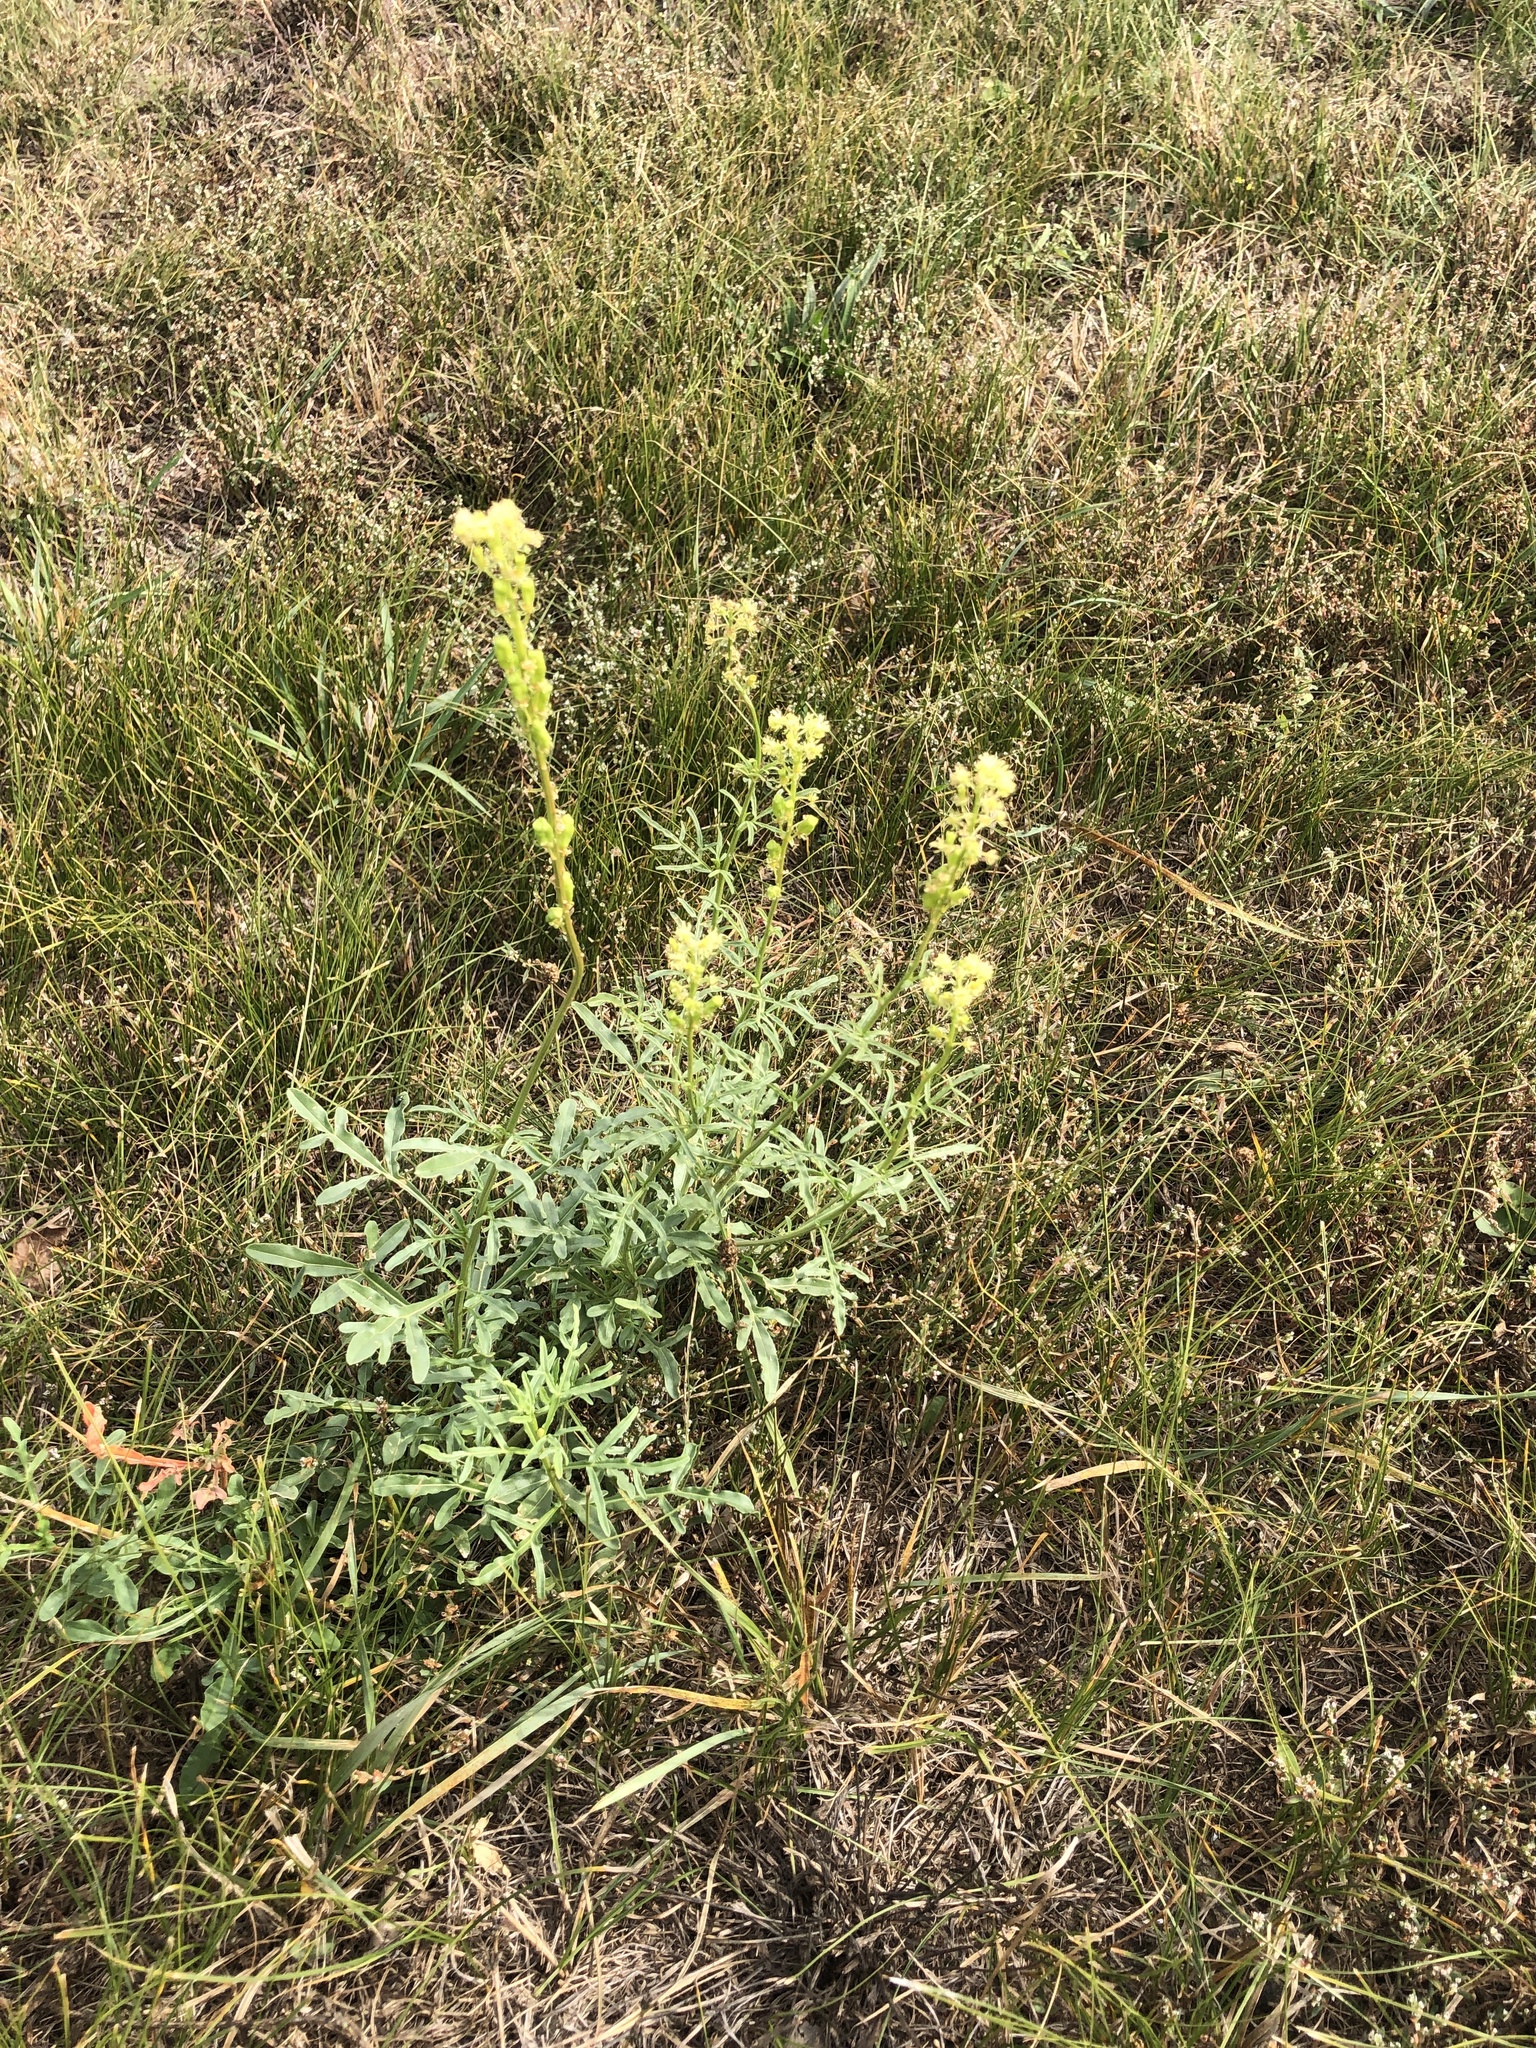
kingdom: Plantae
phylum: Tracheophyta
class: Magnoliopsida
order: Brassicales
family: Resedaceae
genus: Reseda
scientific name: Reseda lutea
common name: Wild mignonette
